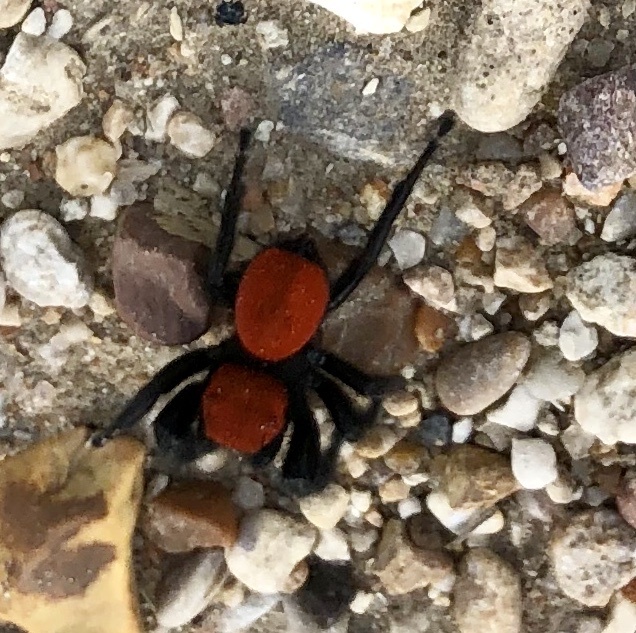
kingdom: Animalia
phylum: Arthropoda
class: Arachnida
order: Araneae
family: Salticidae
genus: Phidippus
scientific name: Phidippus apacheanus
